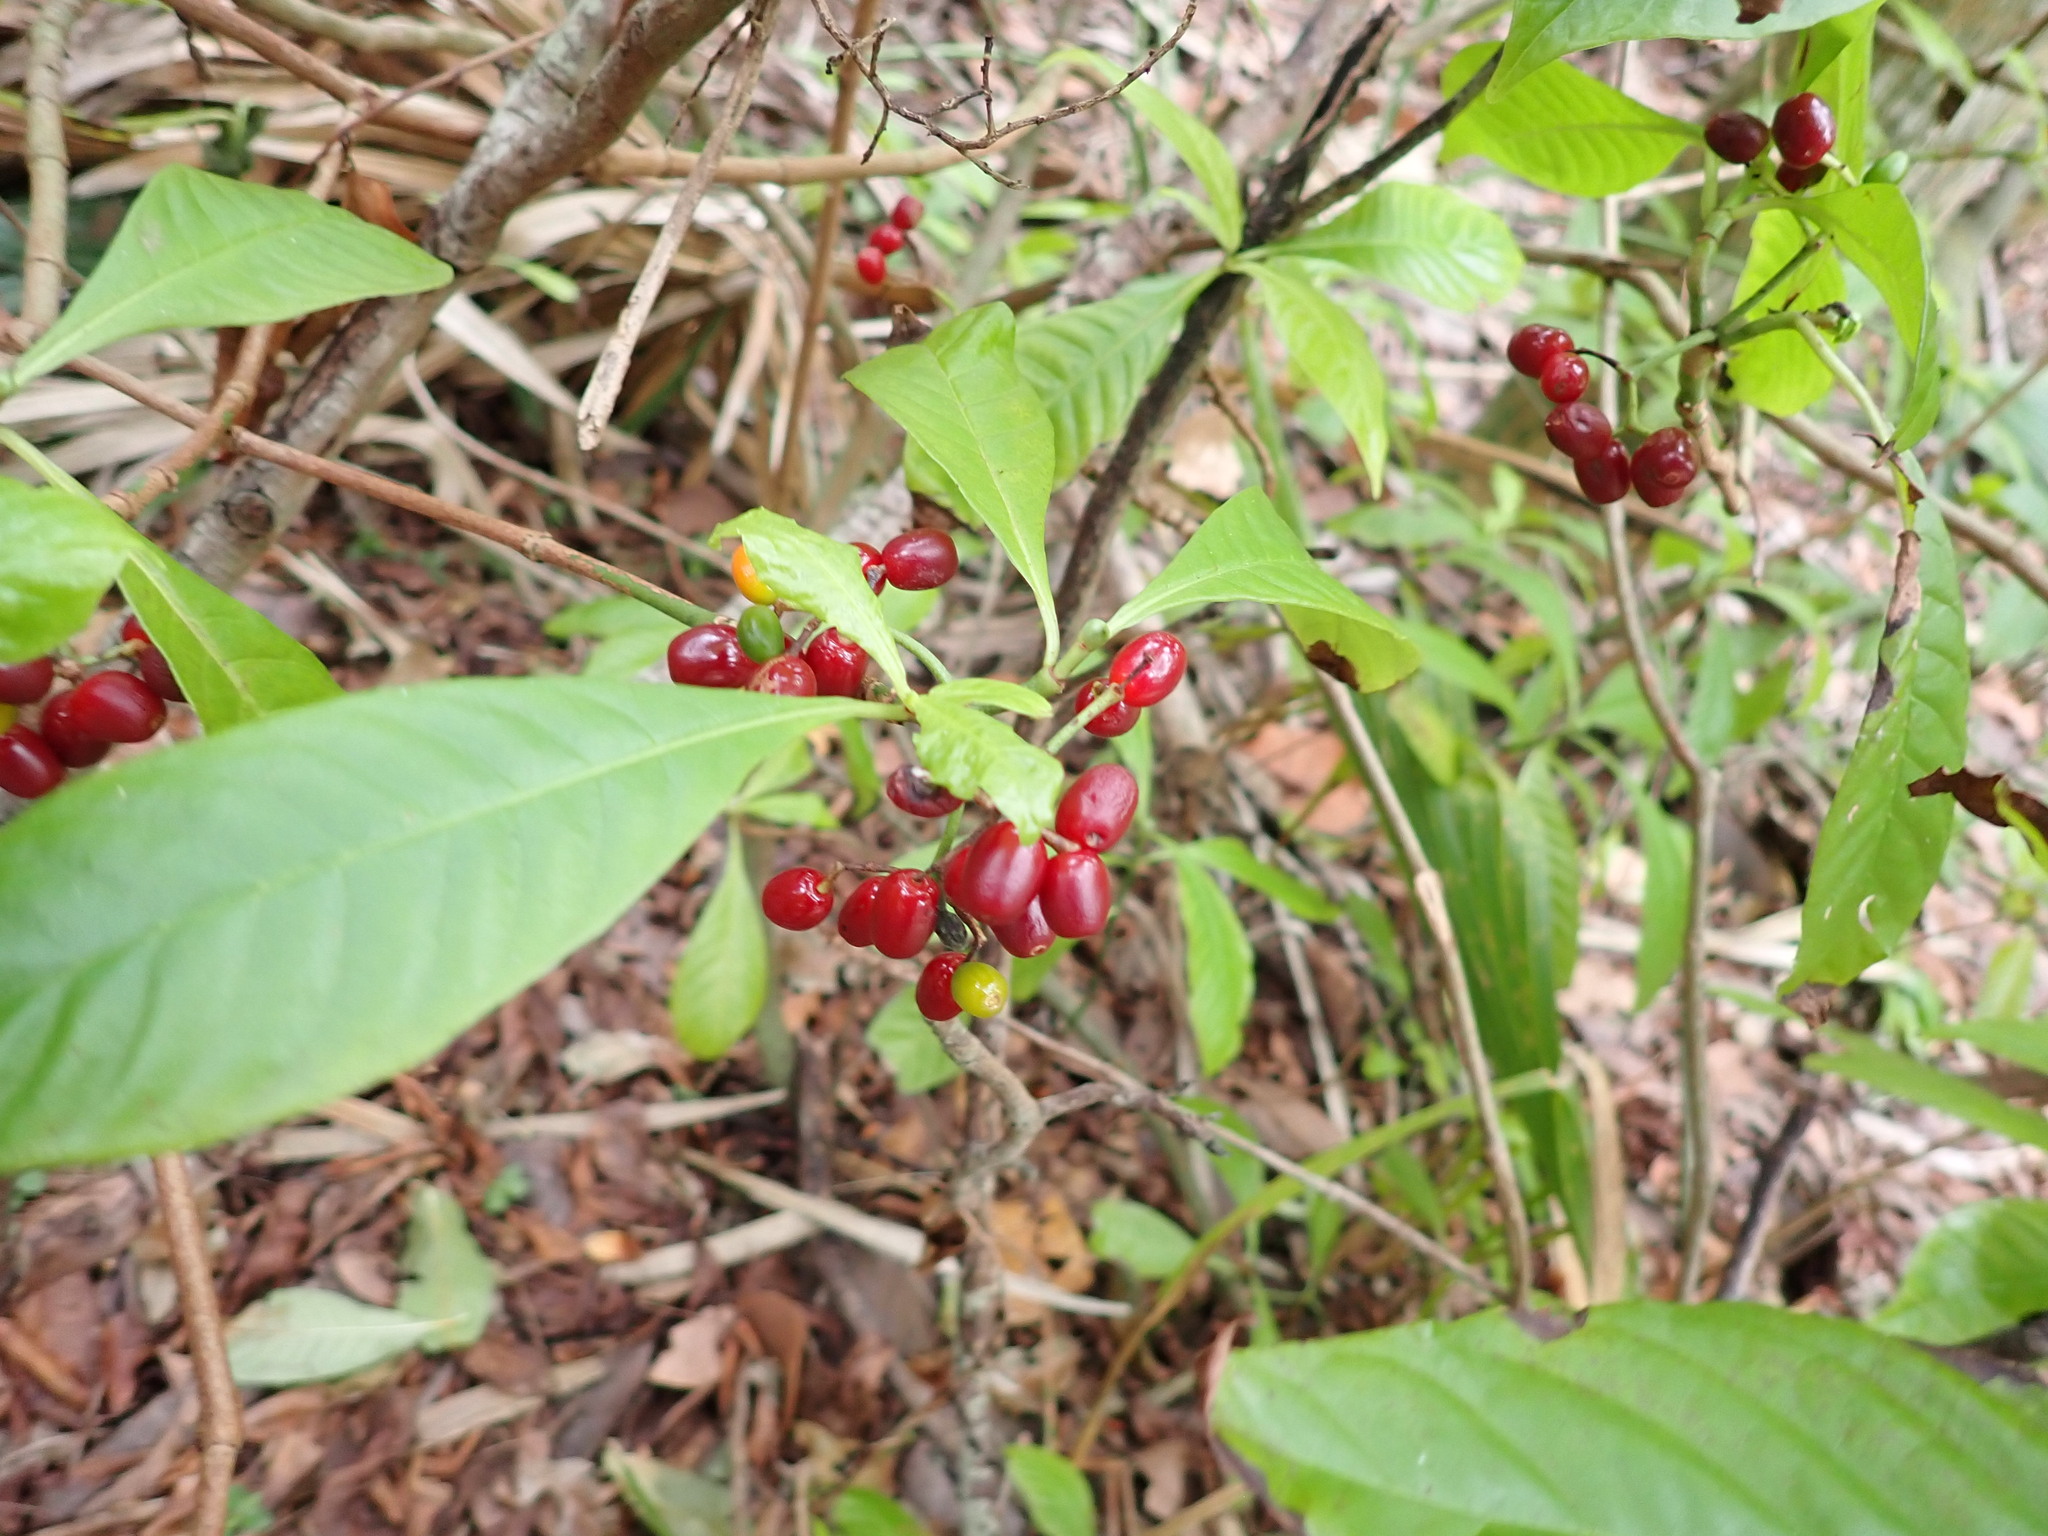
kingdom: Plantae
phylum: Tracheophyta
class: Magnoliopsida
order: Gentianales
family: Rubiaceae
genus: Psychotria
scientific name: Psychotria nervosa
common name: Bastard cankerberry
